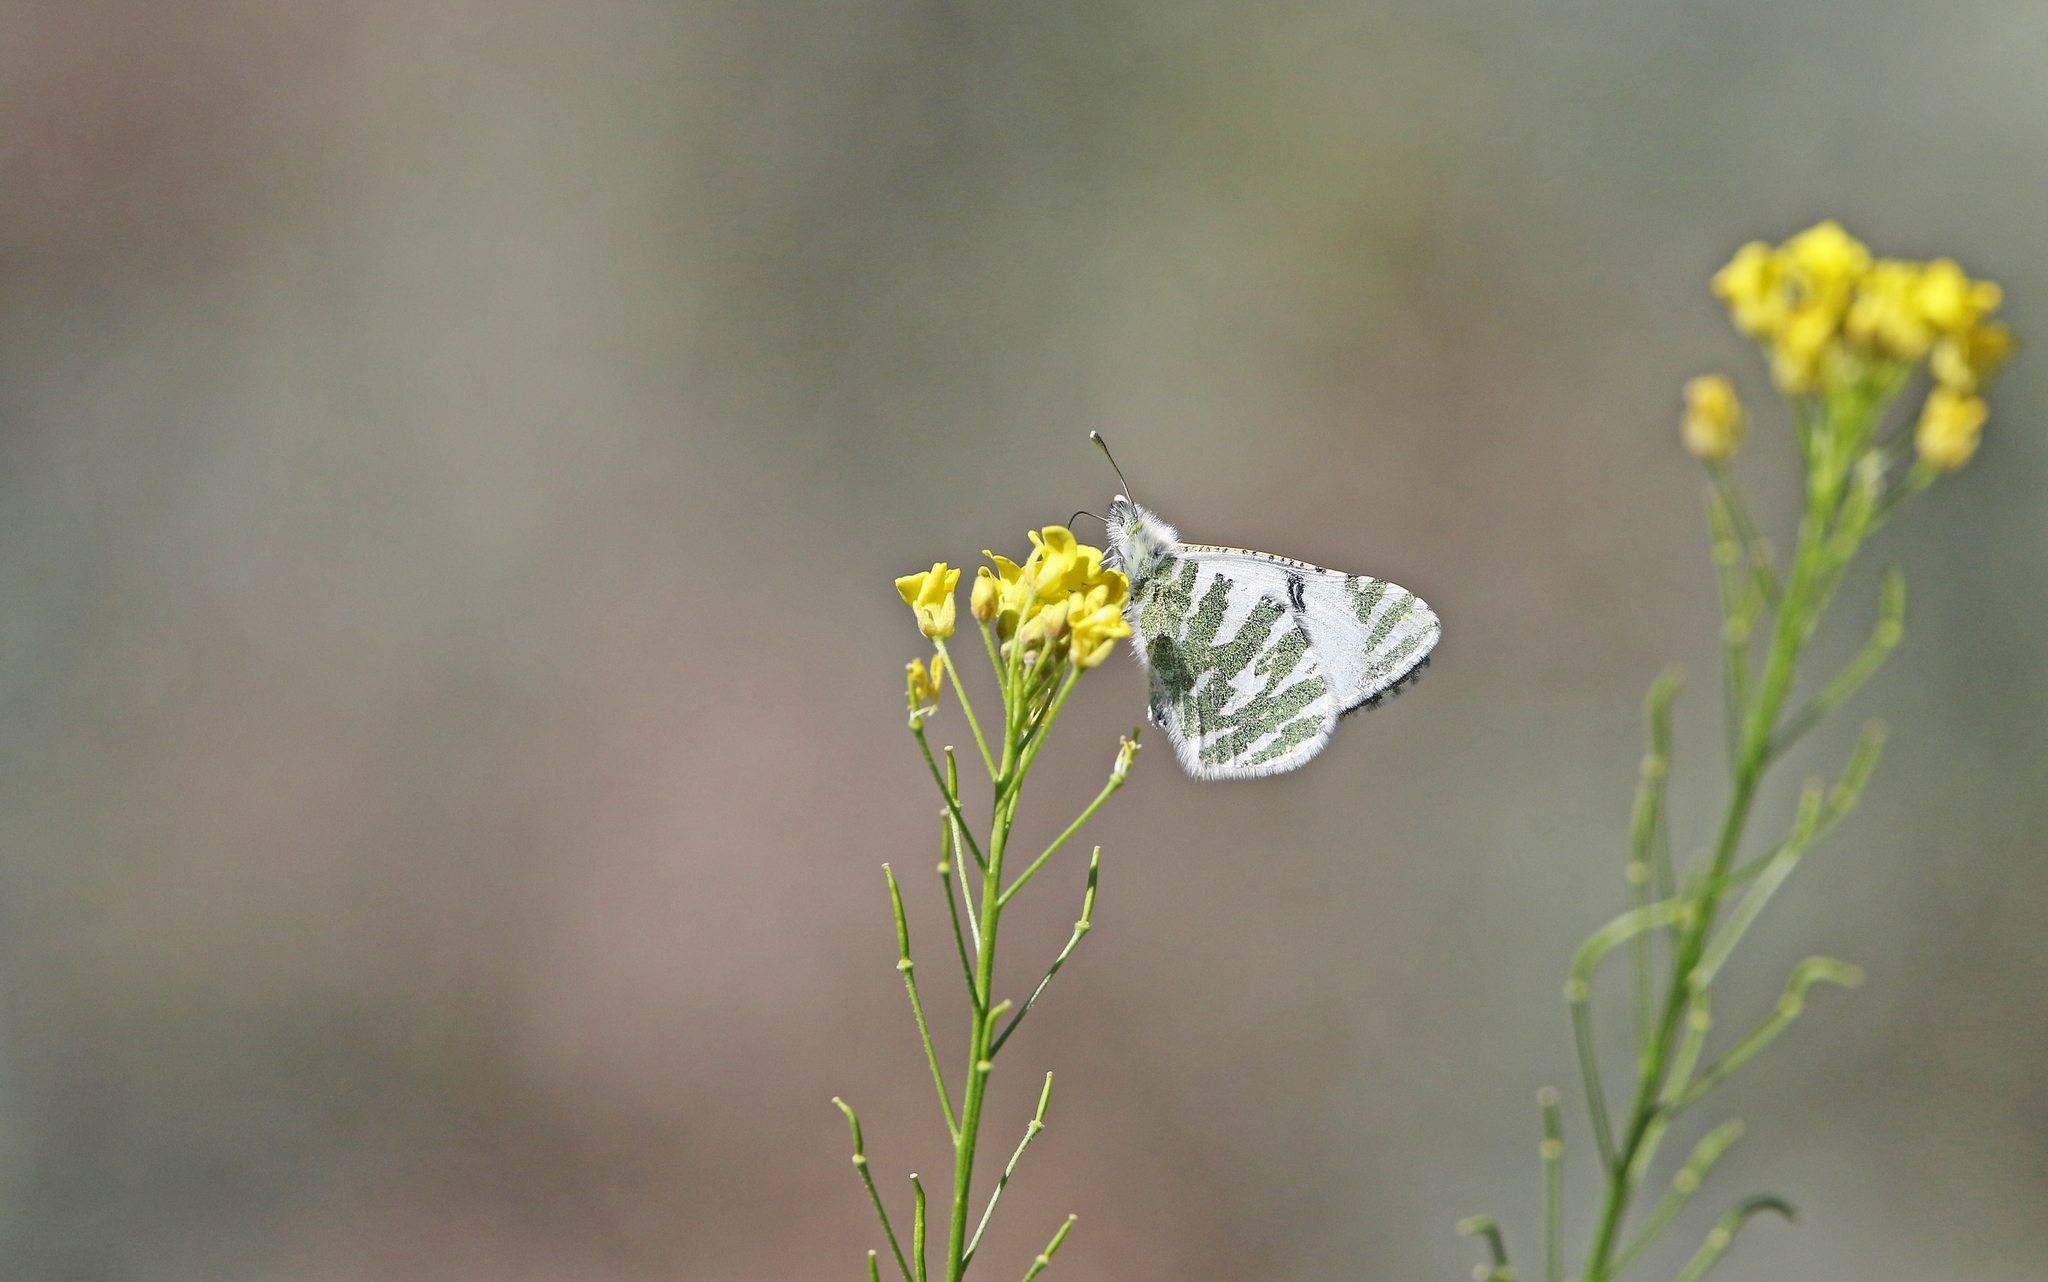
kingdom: Animalia
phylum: Arthropoda
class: Insecta
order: Lepidoptera
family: Pieridae
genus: Euchloe
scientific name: Euchloe eversi
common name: Tenerife green-striped white
